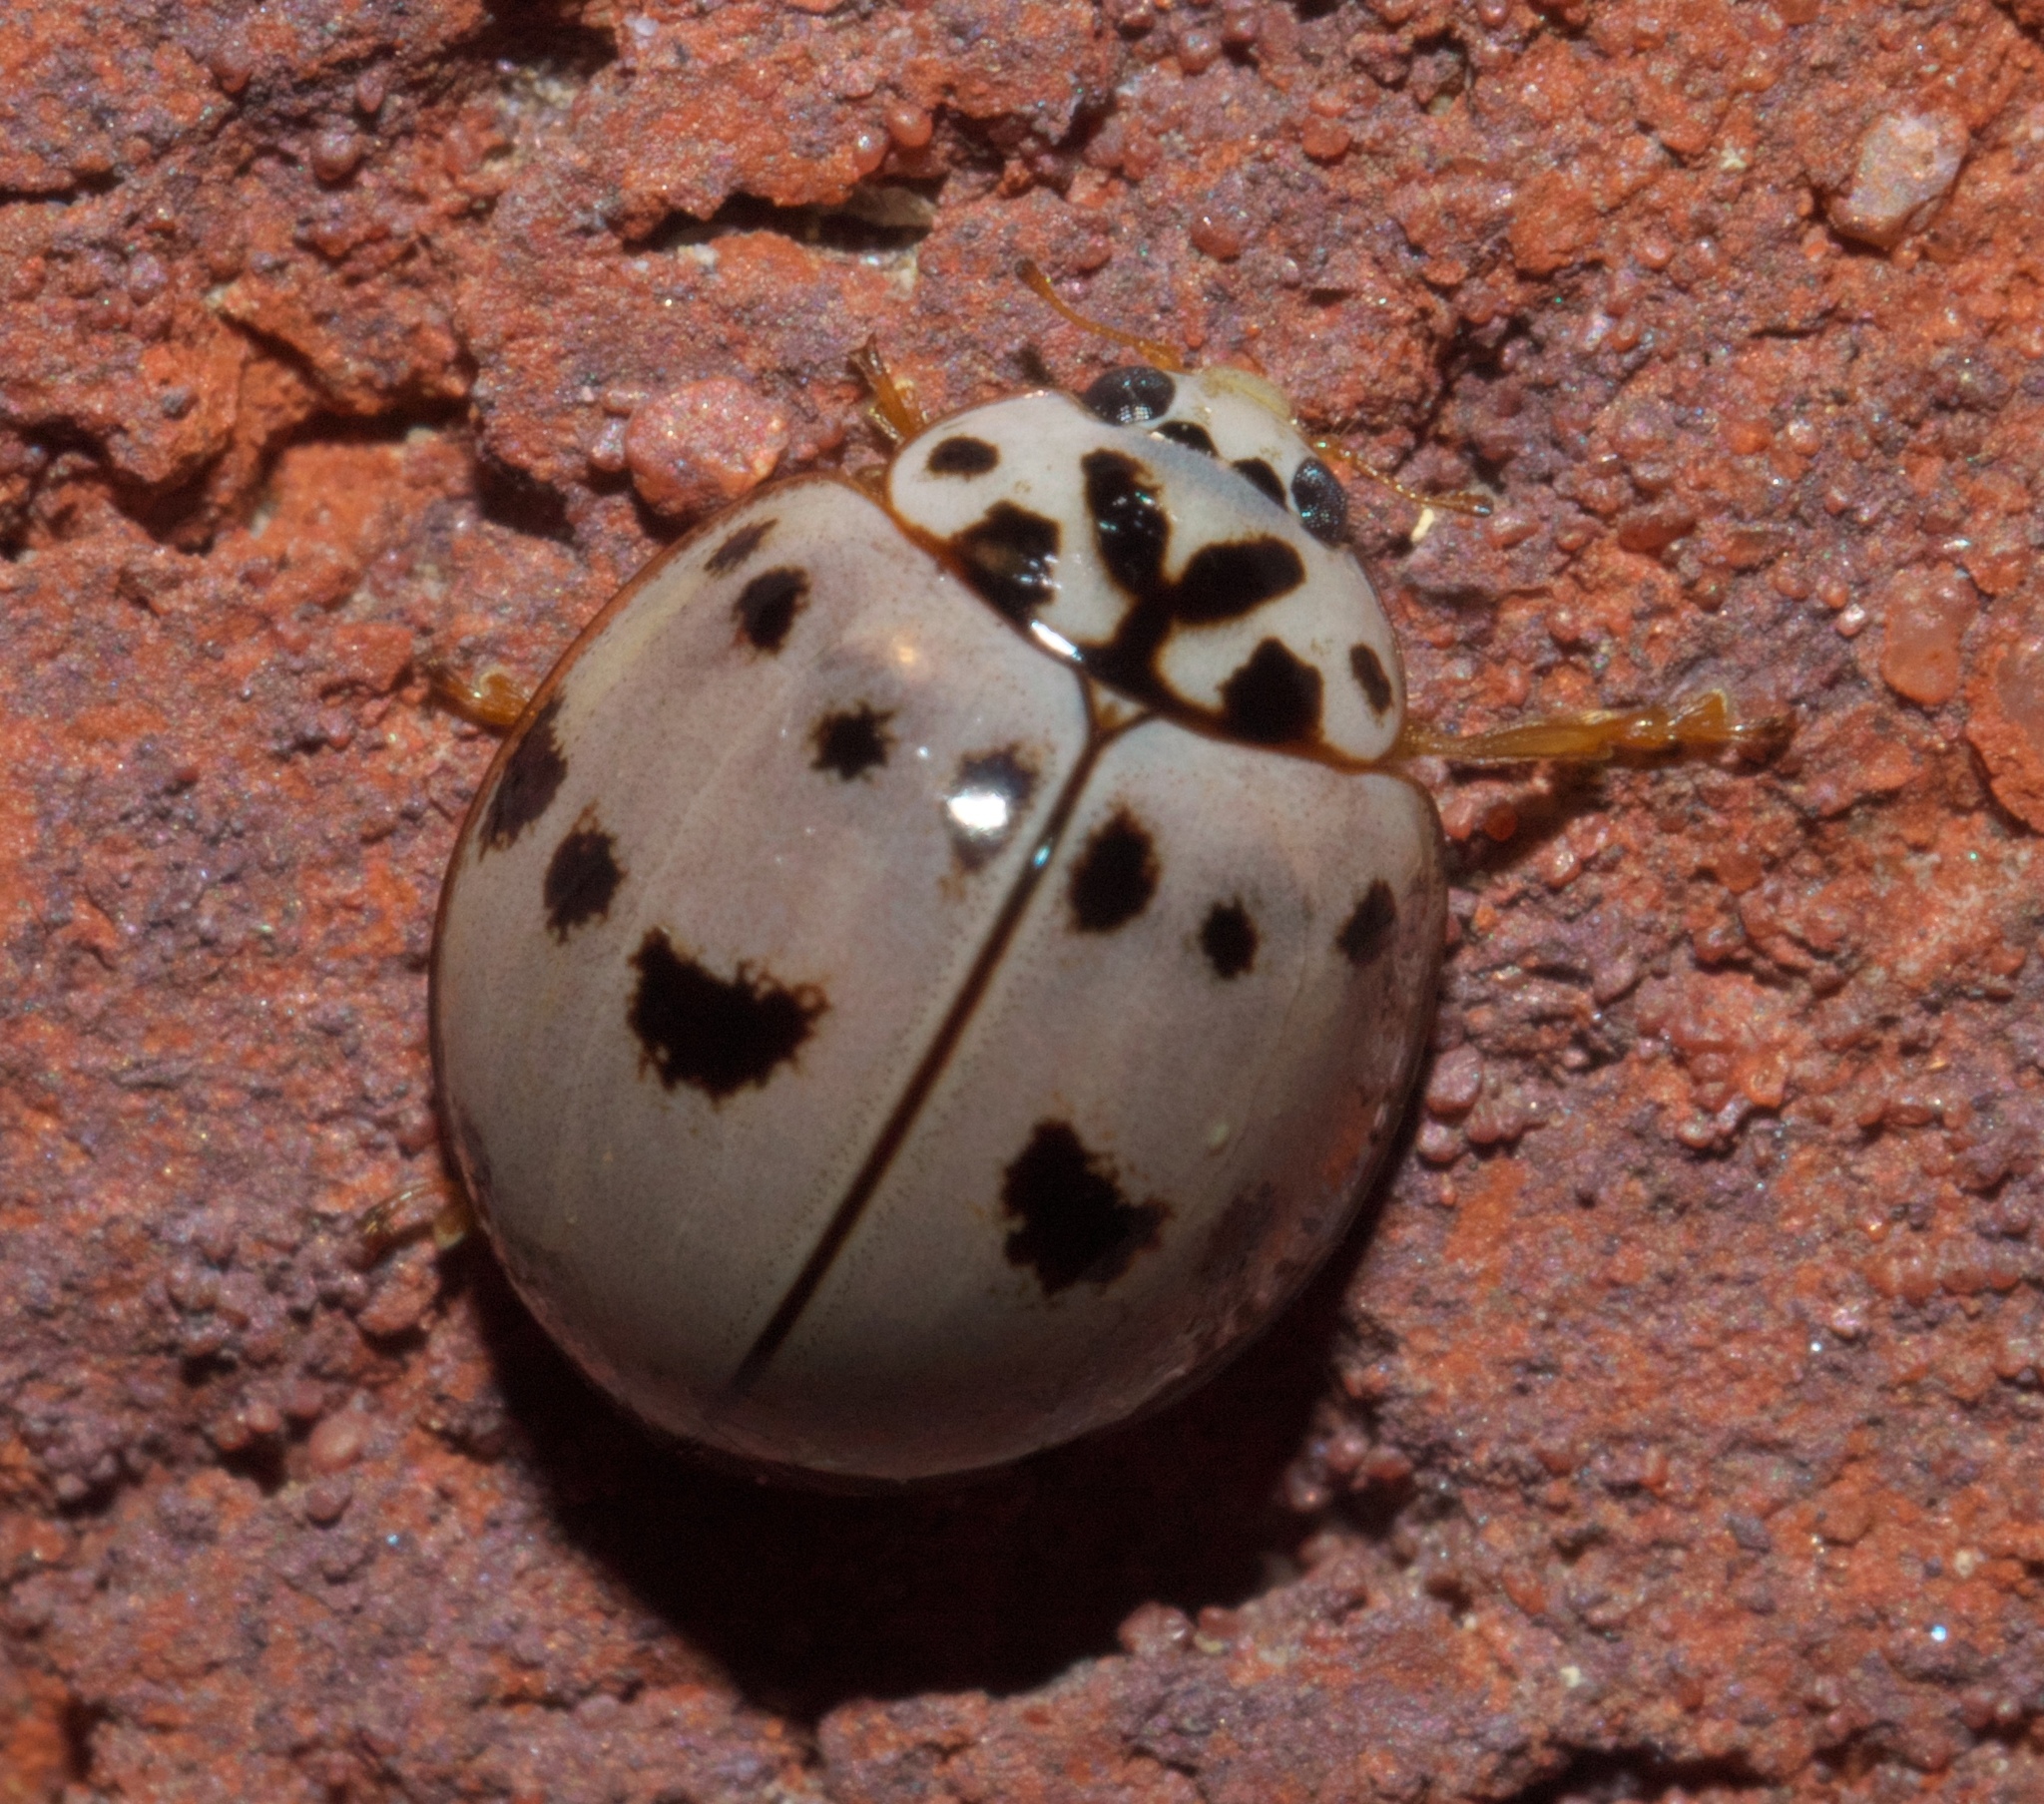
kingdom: Animalia
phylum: Arthropoda
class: Insecta
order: Coleoptera
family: Coccinellidae
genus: Olla
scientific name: Olla v-nigrum
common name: Ashy gray lady beetle
